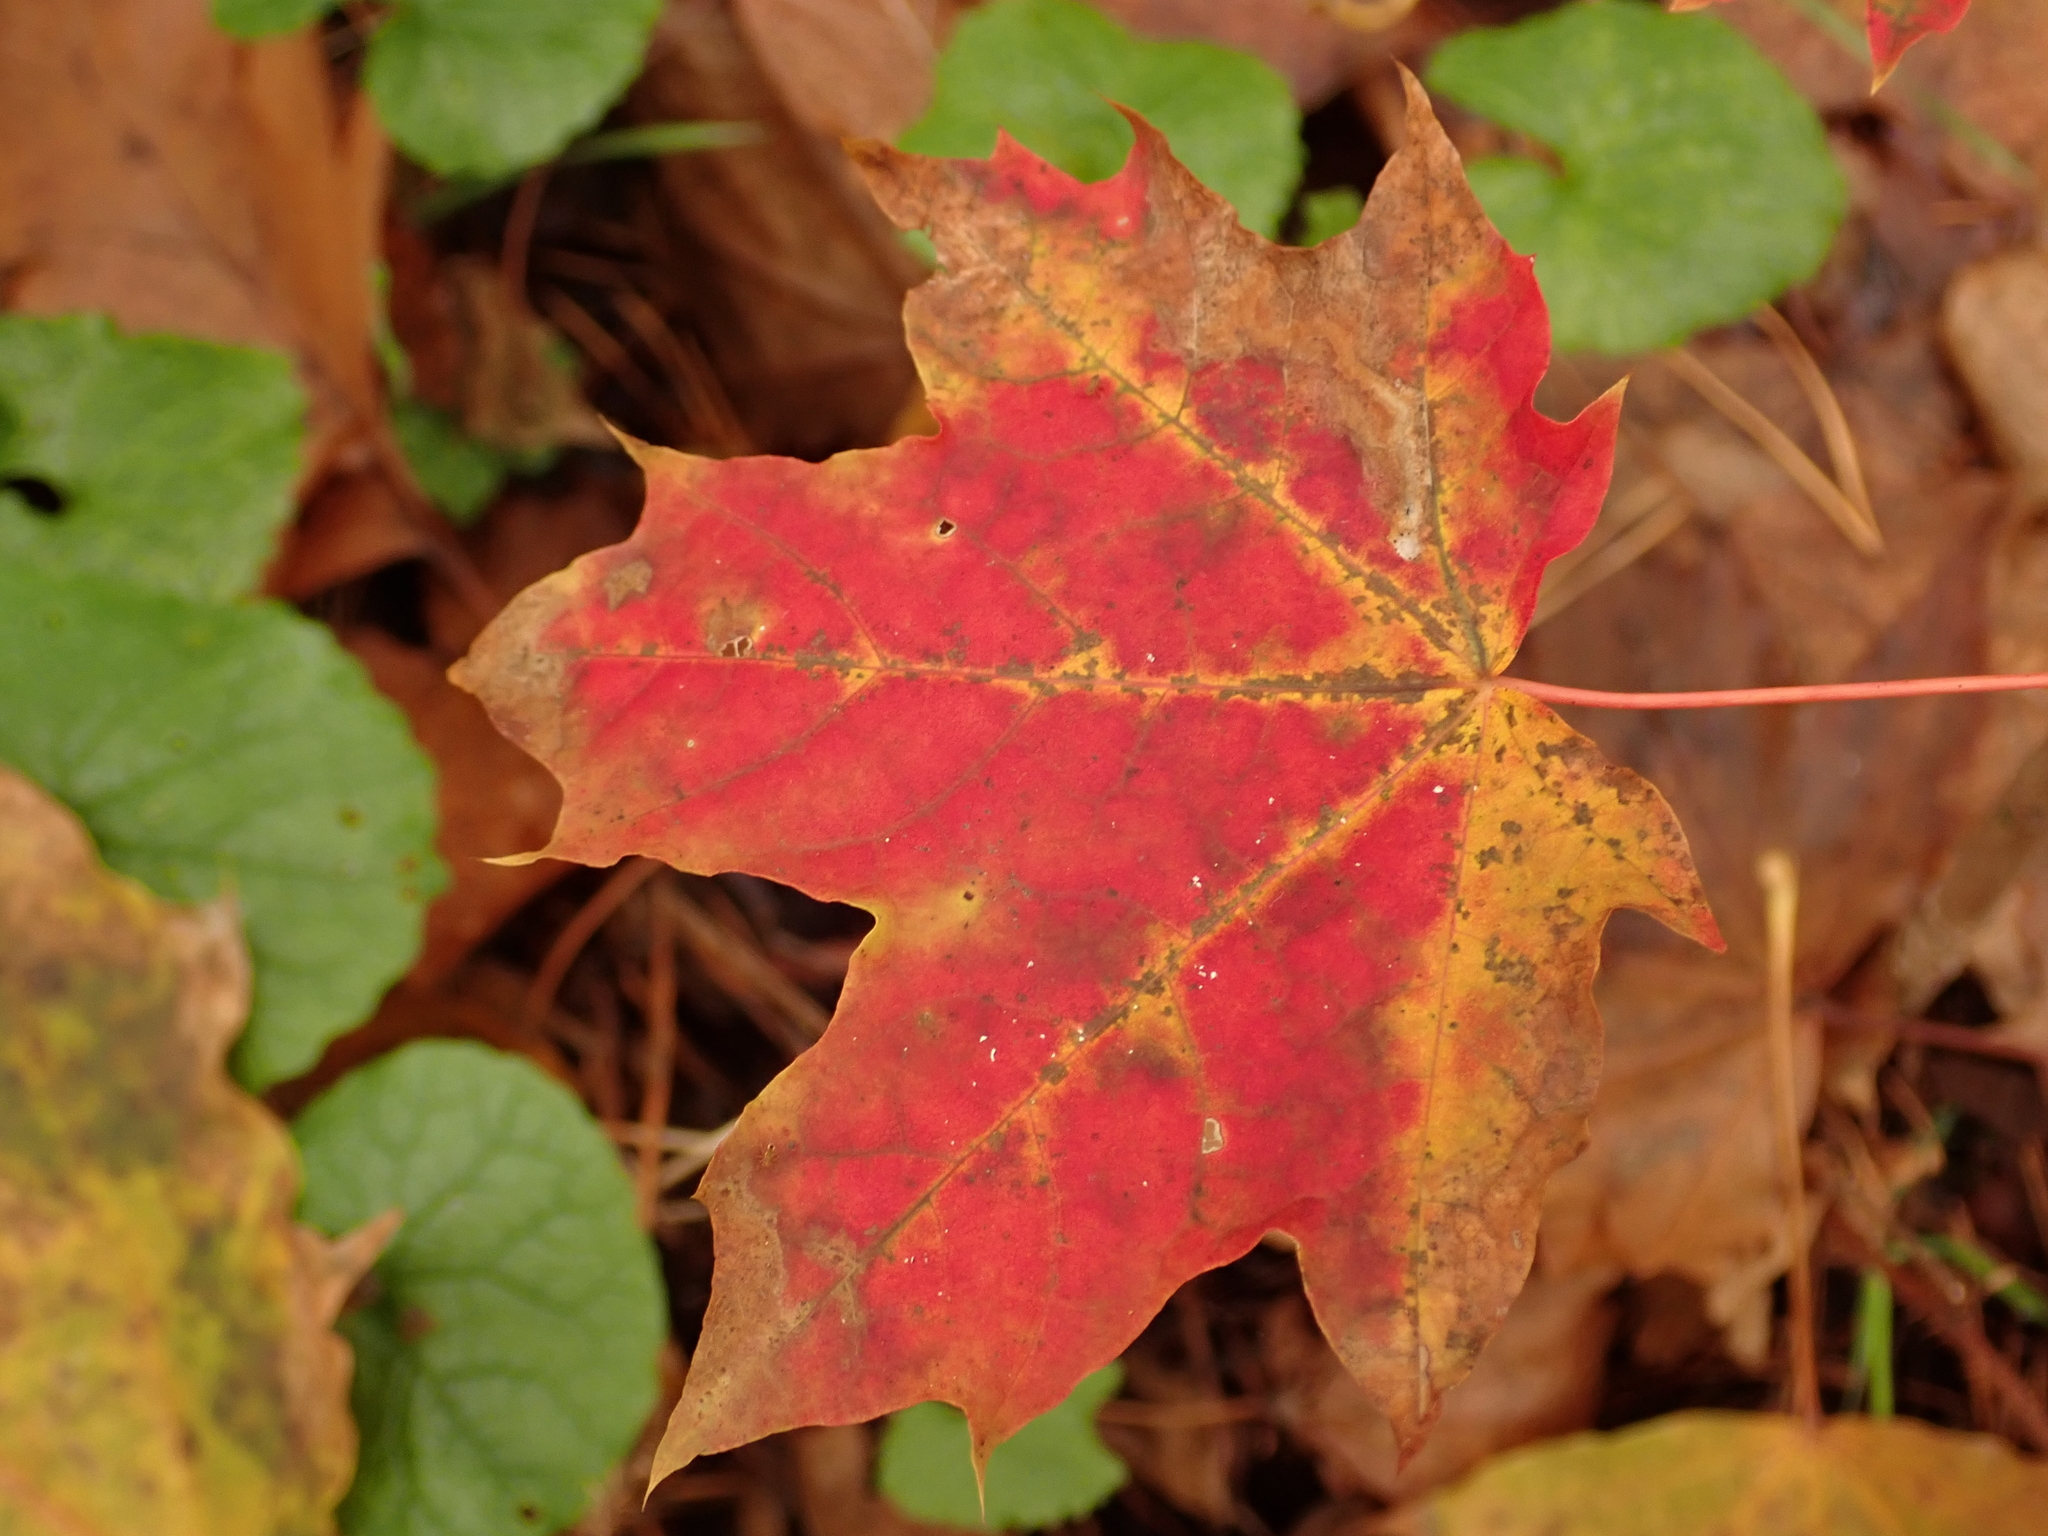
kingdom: Plantae
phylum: Tracheophyta
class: Magnoliopsida
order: Sapindales
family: Sapindaceae
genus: Acer
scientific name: Acer platanoides
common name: Norway maple
